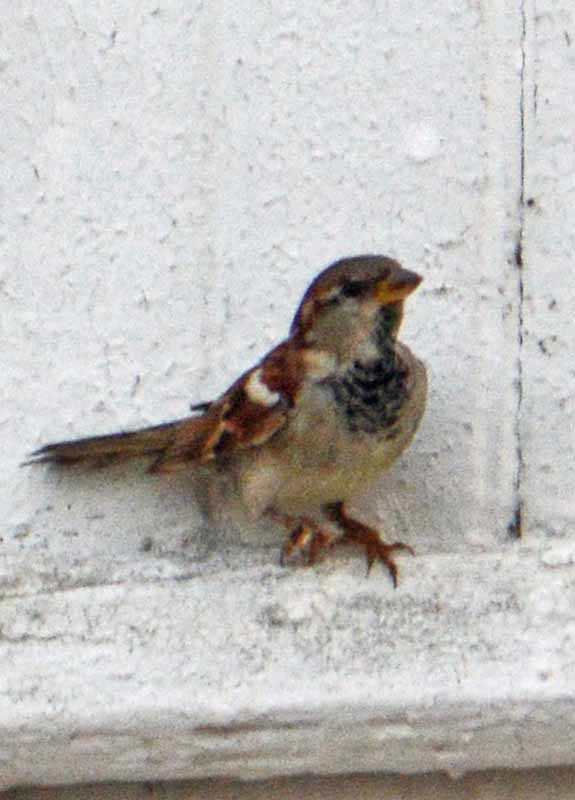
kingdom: Animalia
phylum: Chordata
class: Aves
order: Passeriformes
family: Passeridae
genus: Passer
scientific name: Passer domesticus
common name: House sparrow
